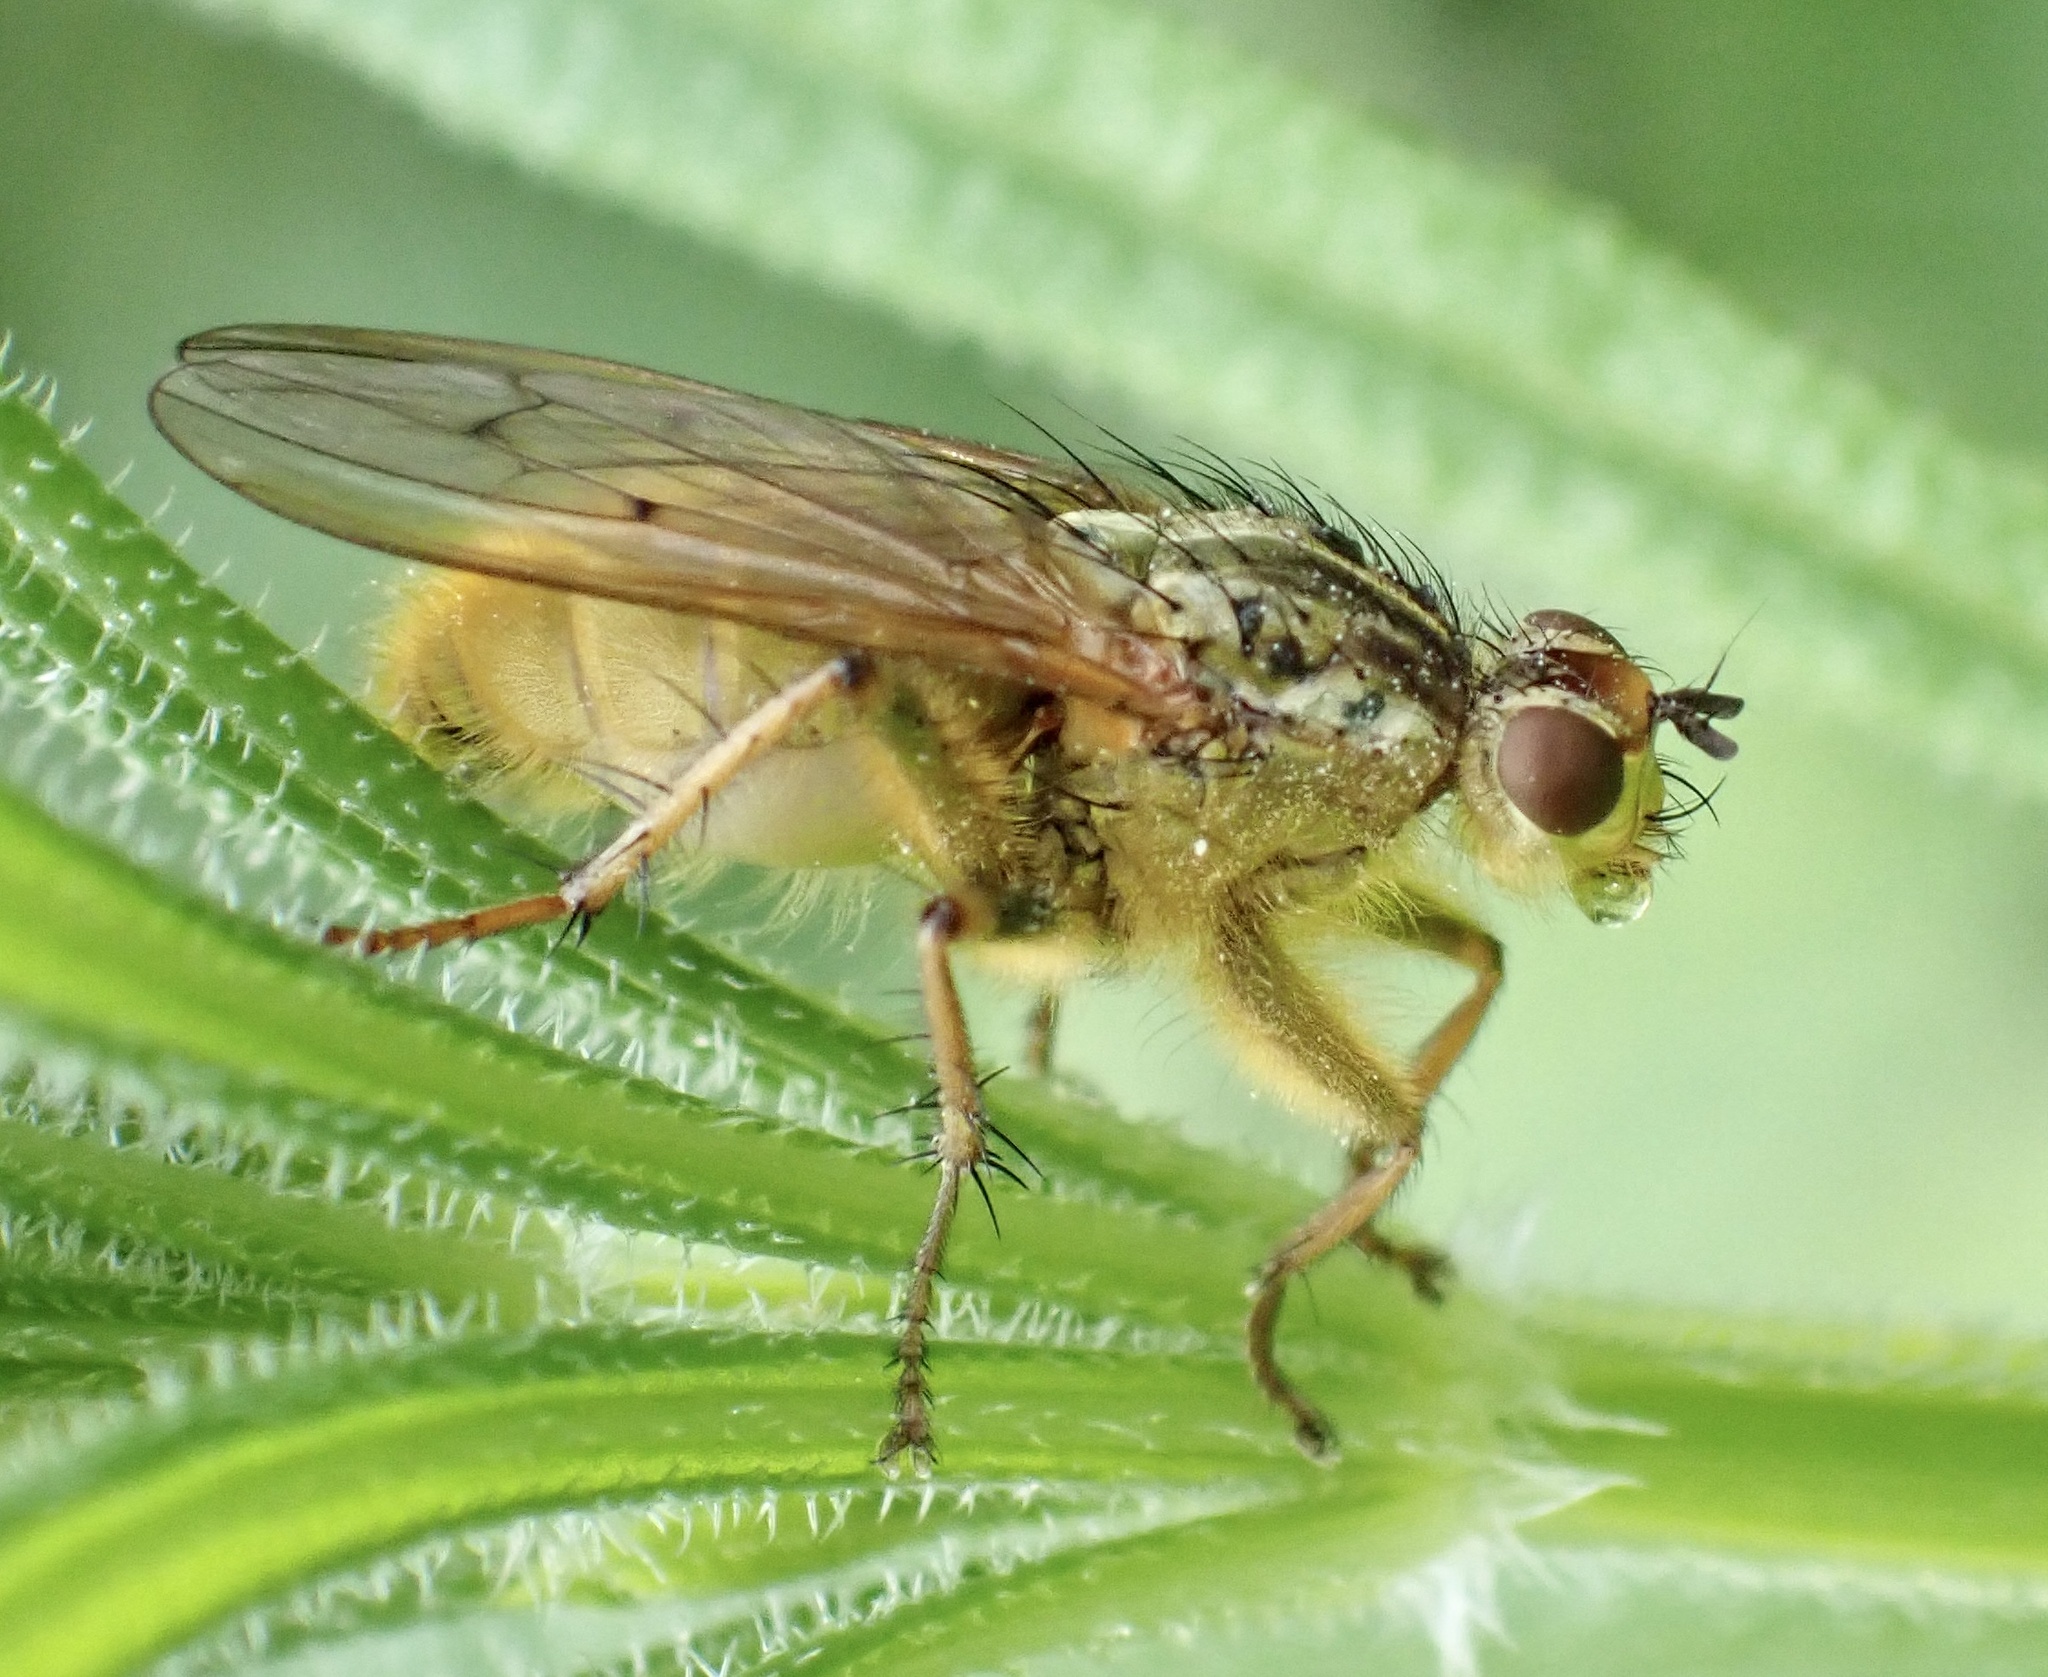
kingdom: Animalia
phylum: Arthropoda
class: Insecta
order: Diptera
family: Scathophagidae
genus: Scathophaga
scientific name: Scathophaga stercoraria
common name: Yellow dung fly
